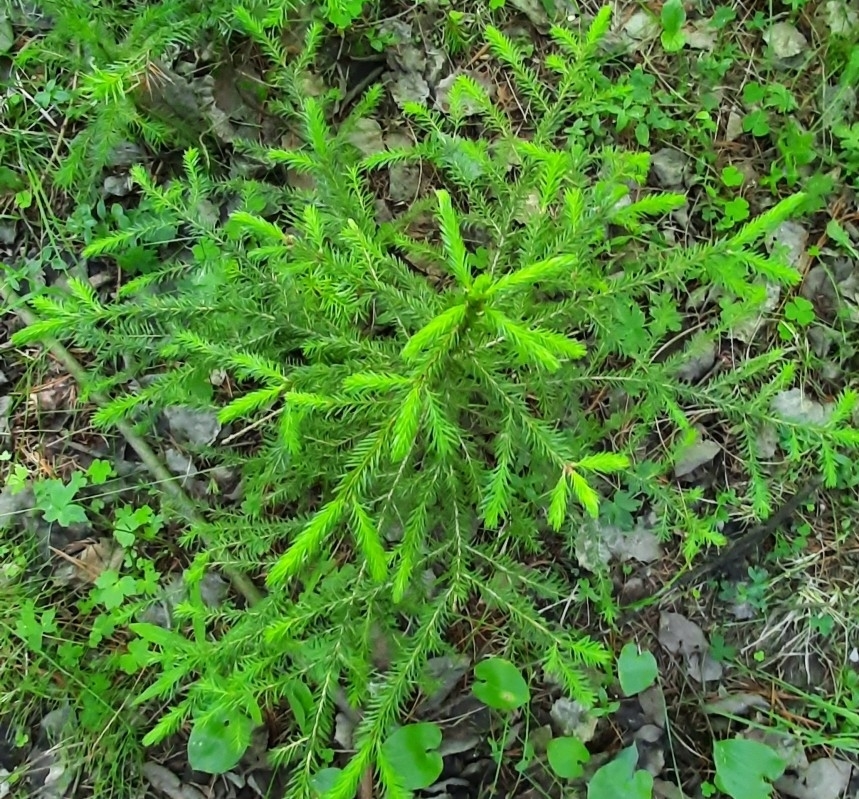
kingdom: Plantae
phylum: Tracheophyta
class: Pinopsida
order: Pinales
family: Pinaceae
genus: Picea
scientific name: Picea obovata
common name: Siberian spruce
